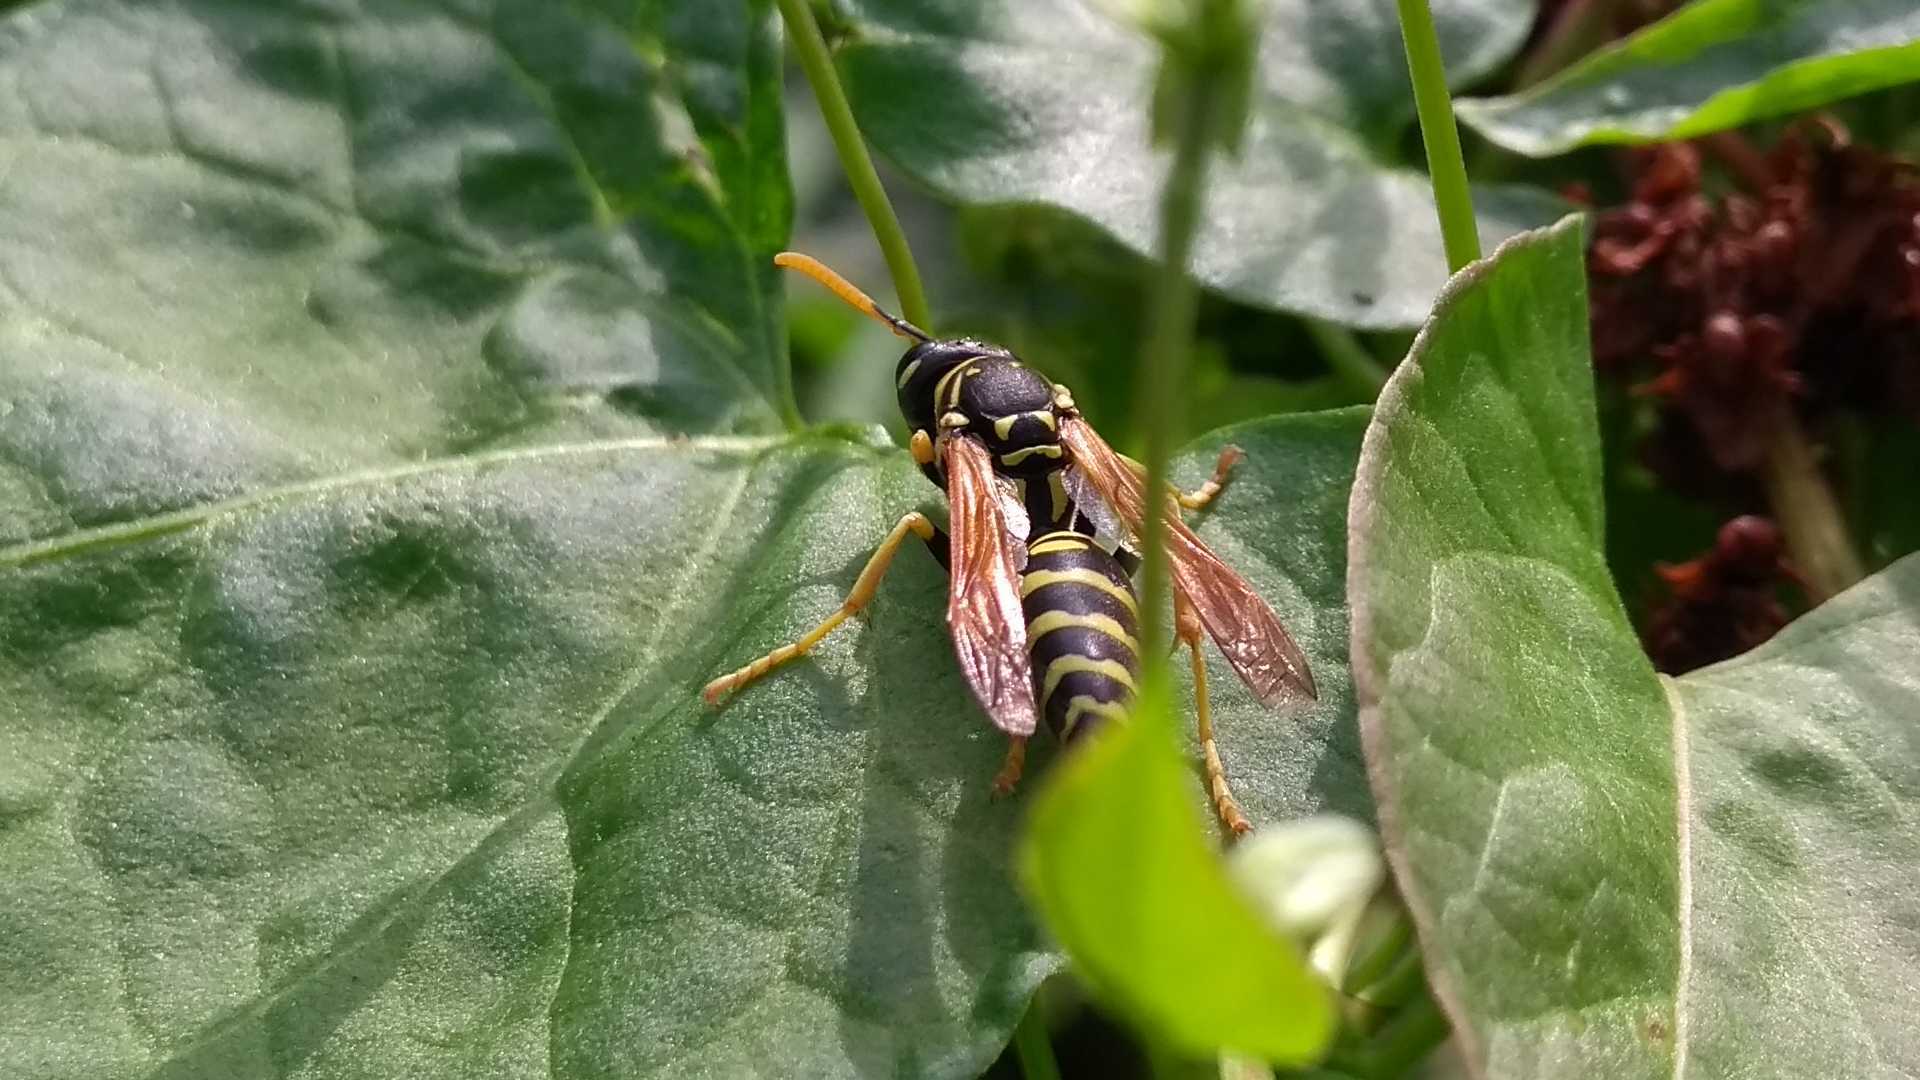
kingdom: Animalia
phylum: Arthropoda
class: Insecta
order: Hymenoptera
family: Eumenidae
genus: Polistes
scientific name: Polistes dominula
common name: Paper wasp
